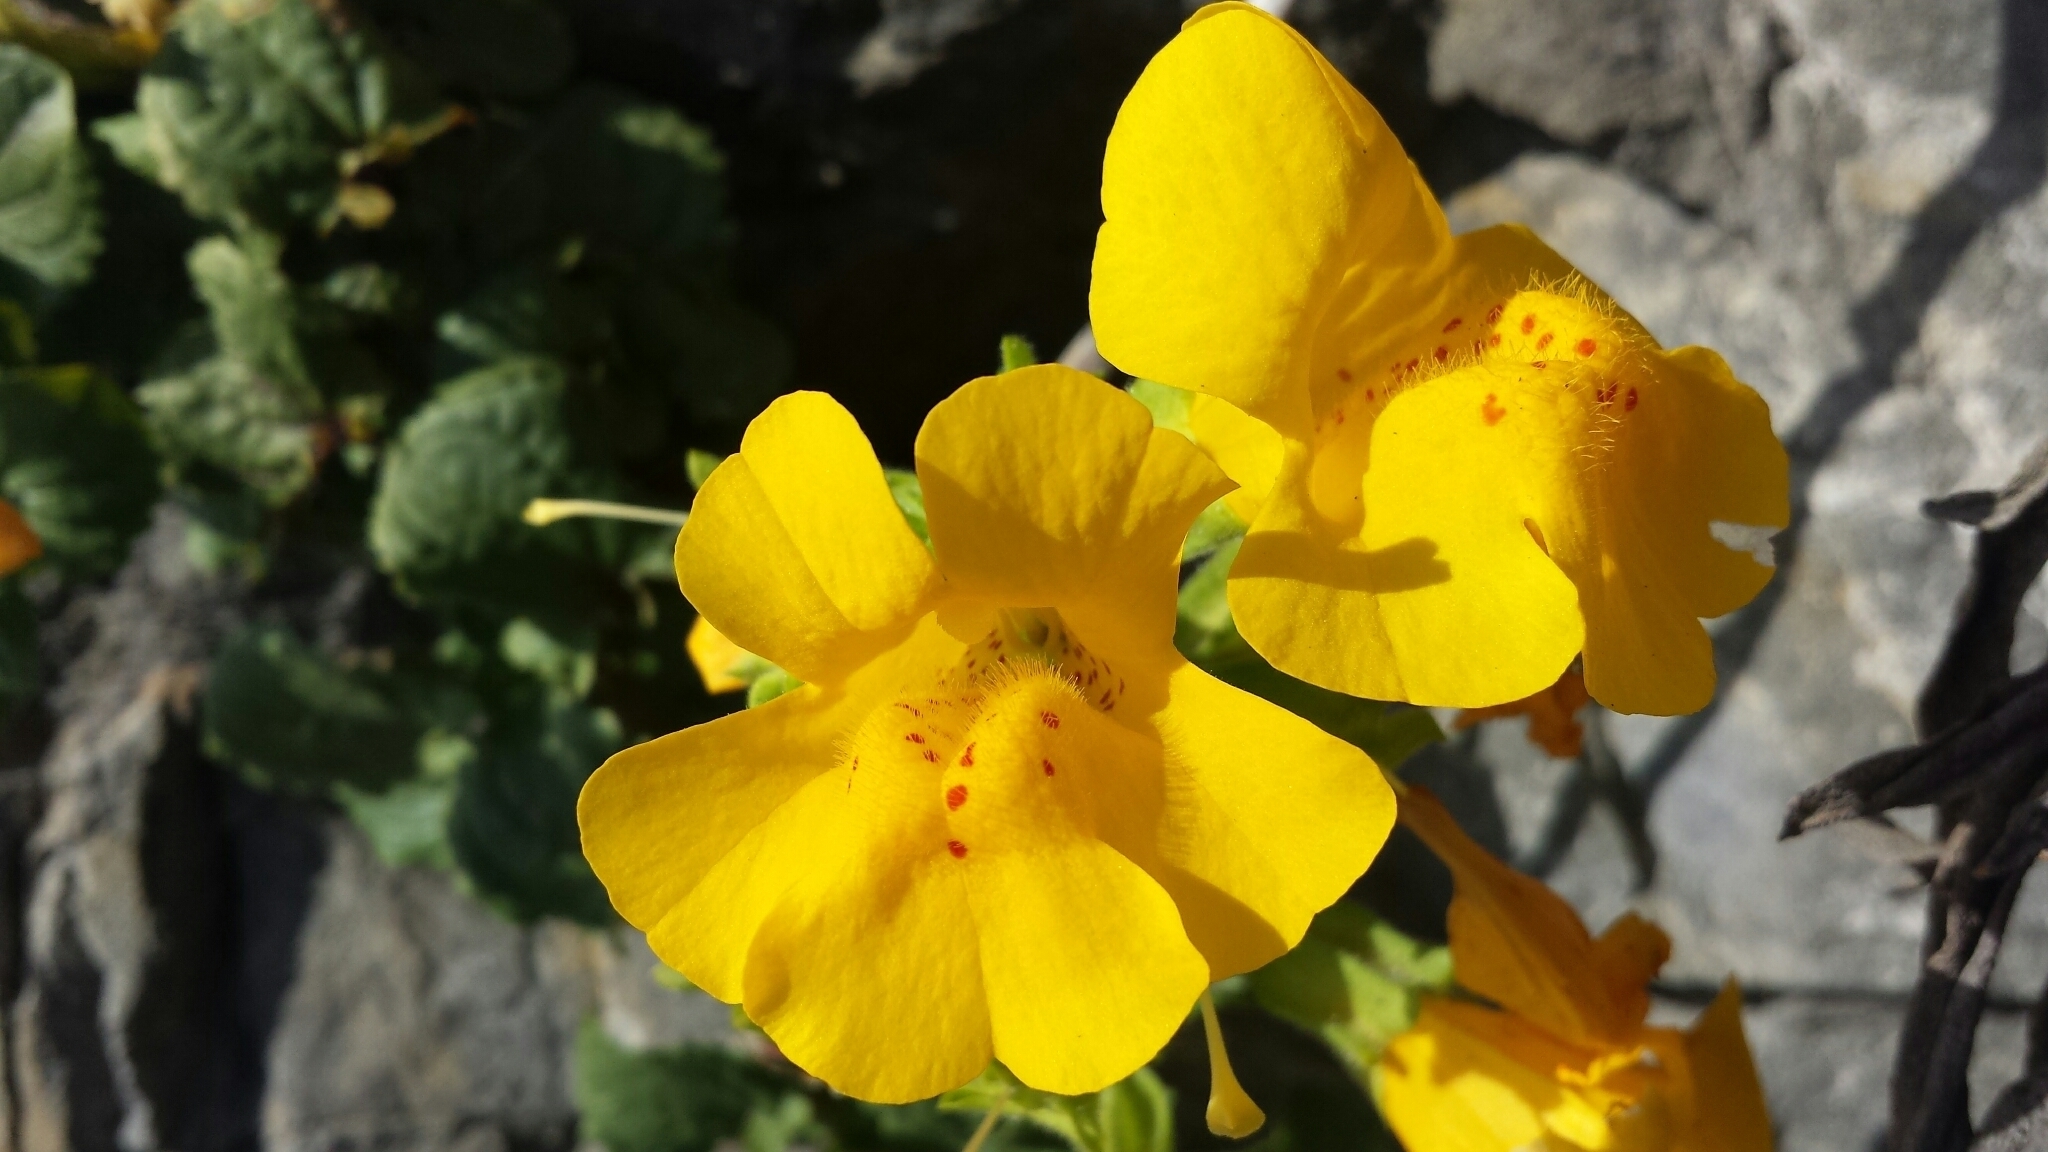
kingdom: Plantae
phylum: Tracheophyta
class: Magnoliopsida
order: Lamiales
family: Phrymaceae
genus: Erythranthe
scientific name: Erythranthe grandis
